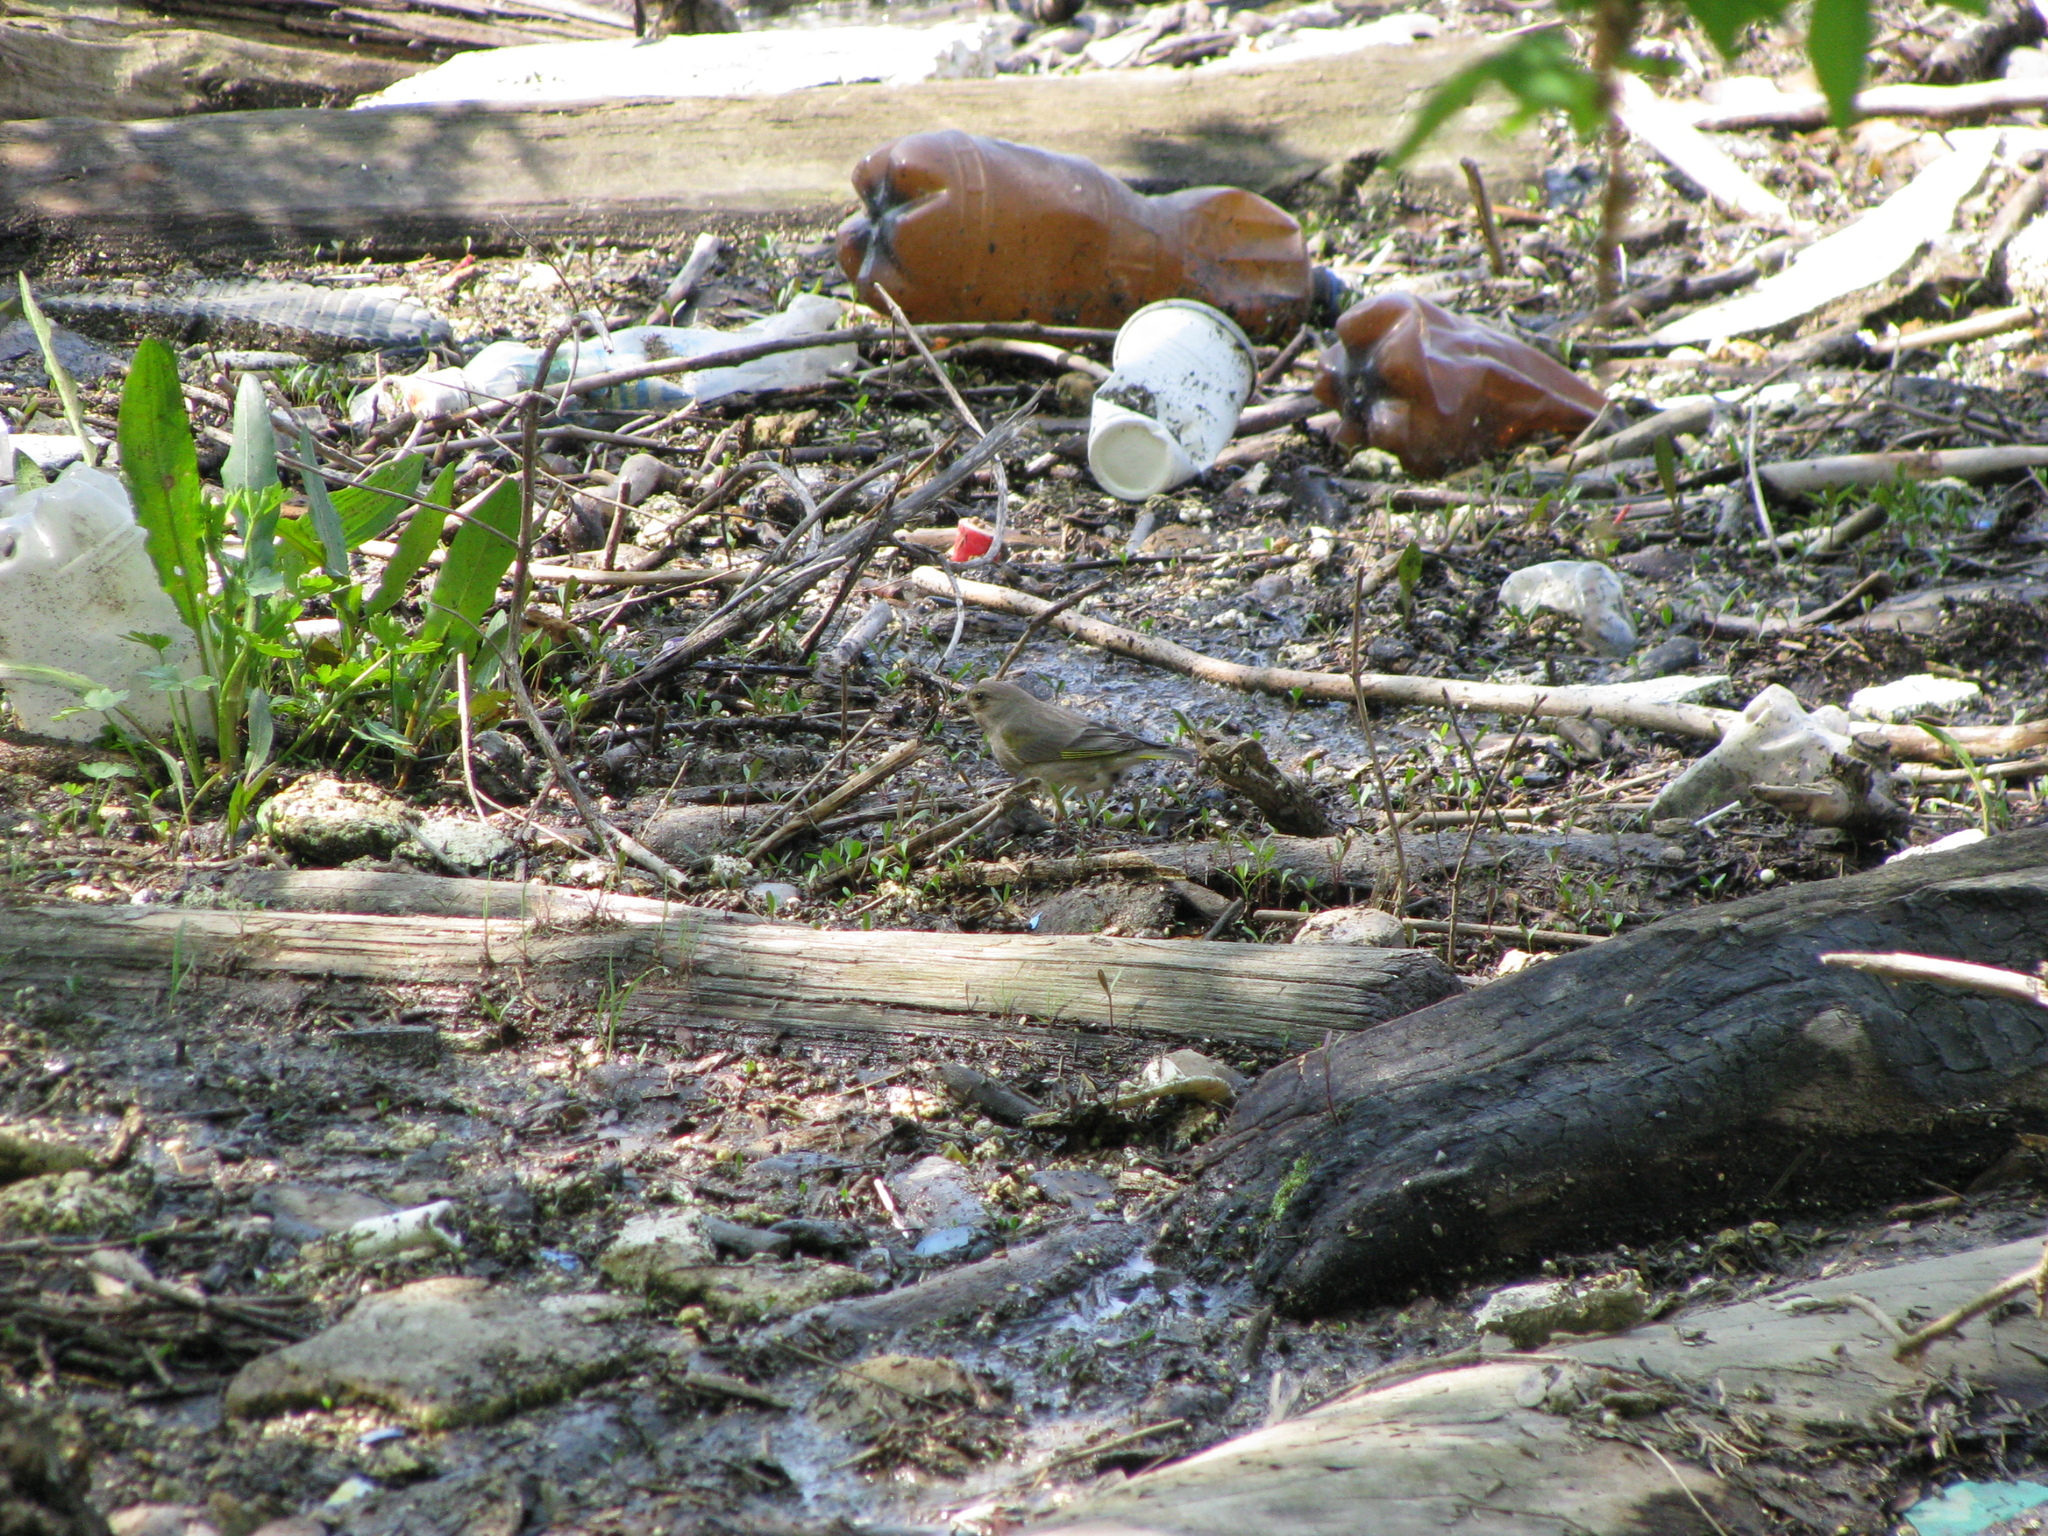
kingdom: Plantae
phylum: Tracheophyta
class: Liliopsida
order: Poales
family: Poaceae
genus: Chloris
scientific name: Chloris chloris
